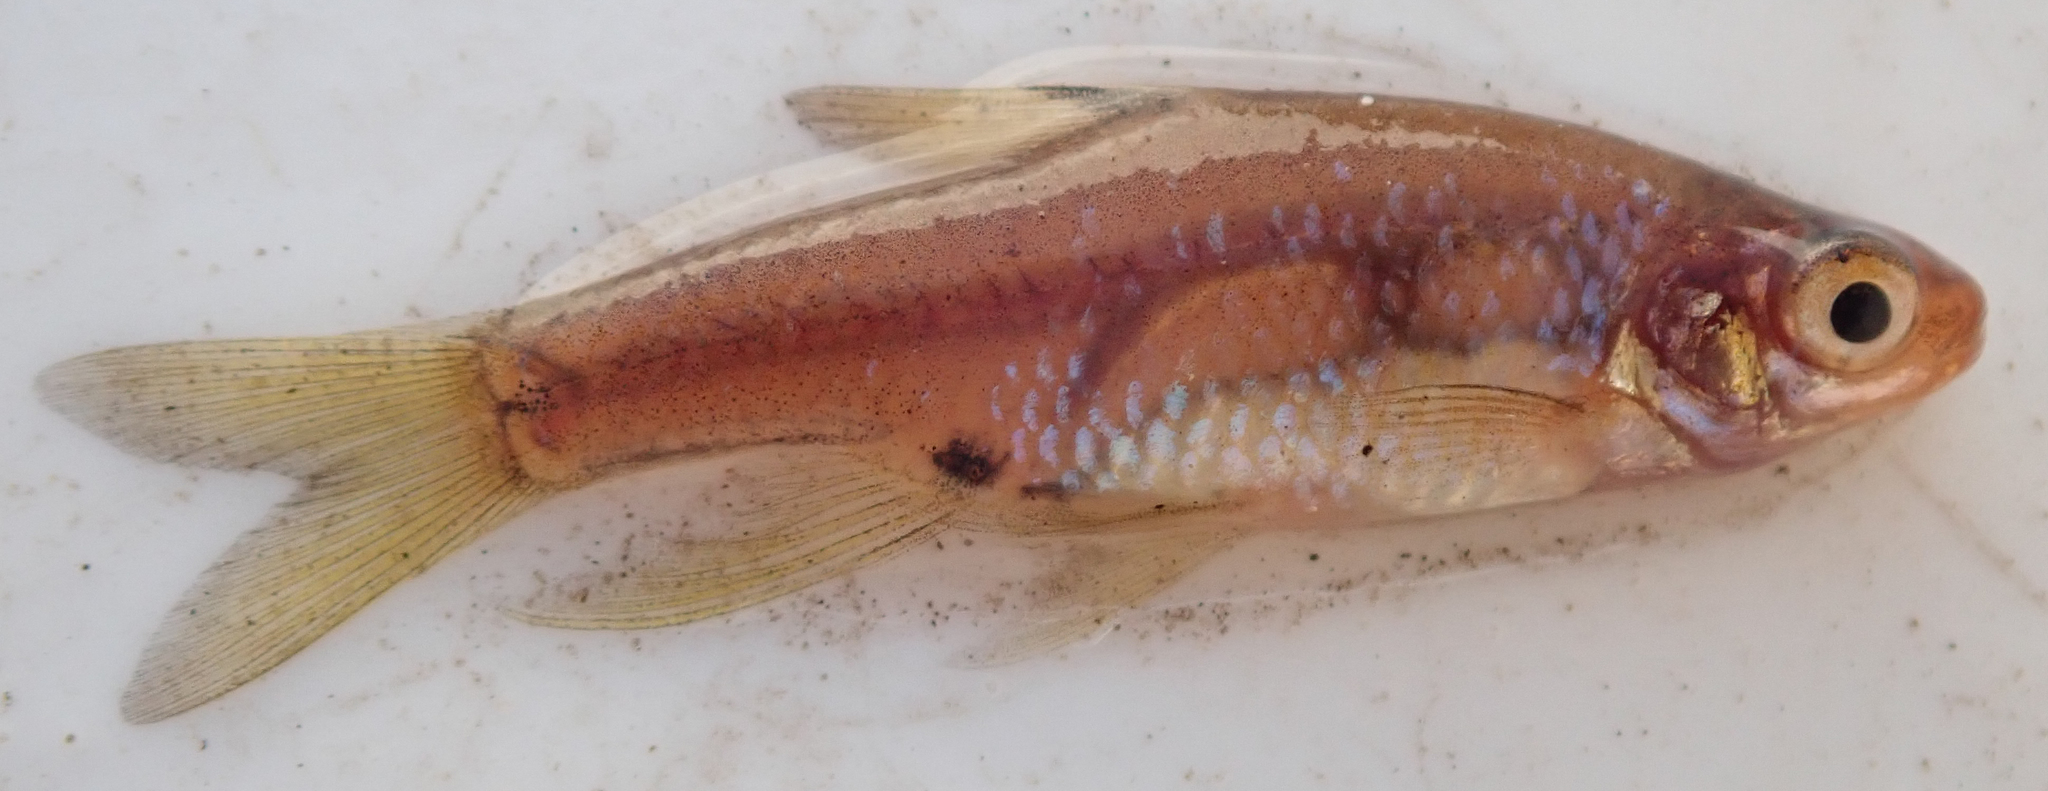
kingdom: Animalia
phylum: Chordata
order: Cypriniformes
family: Cyprinidae
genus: Enteromius
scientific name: Enteromius haasianus
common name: Sickle-fin barb
